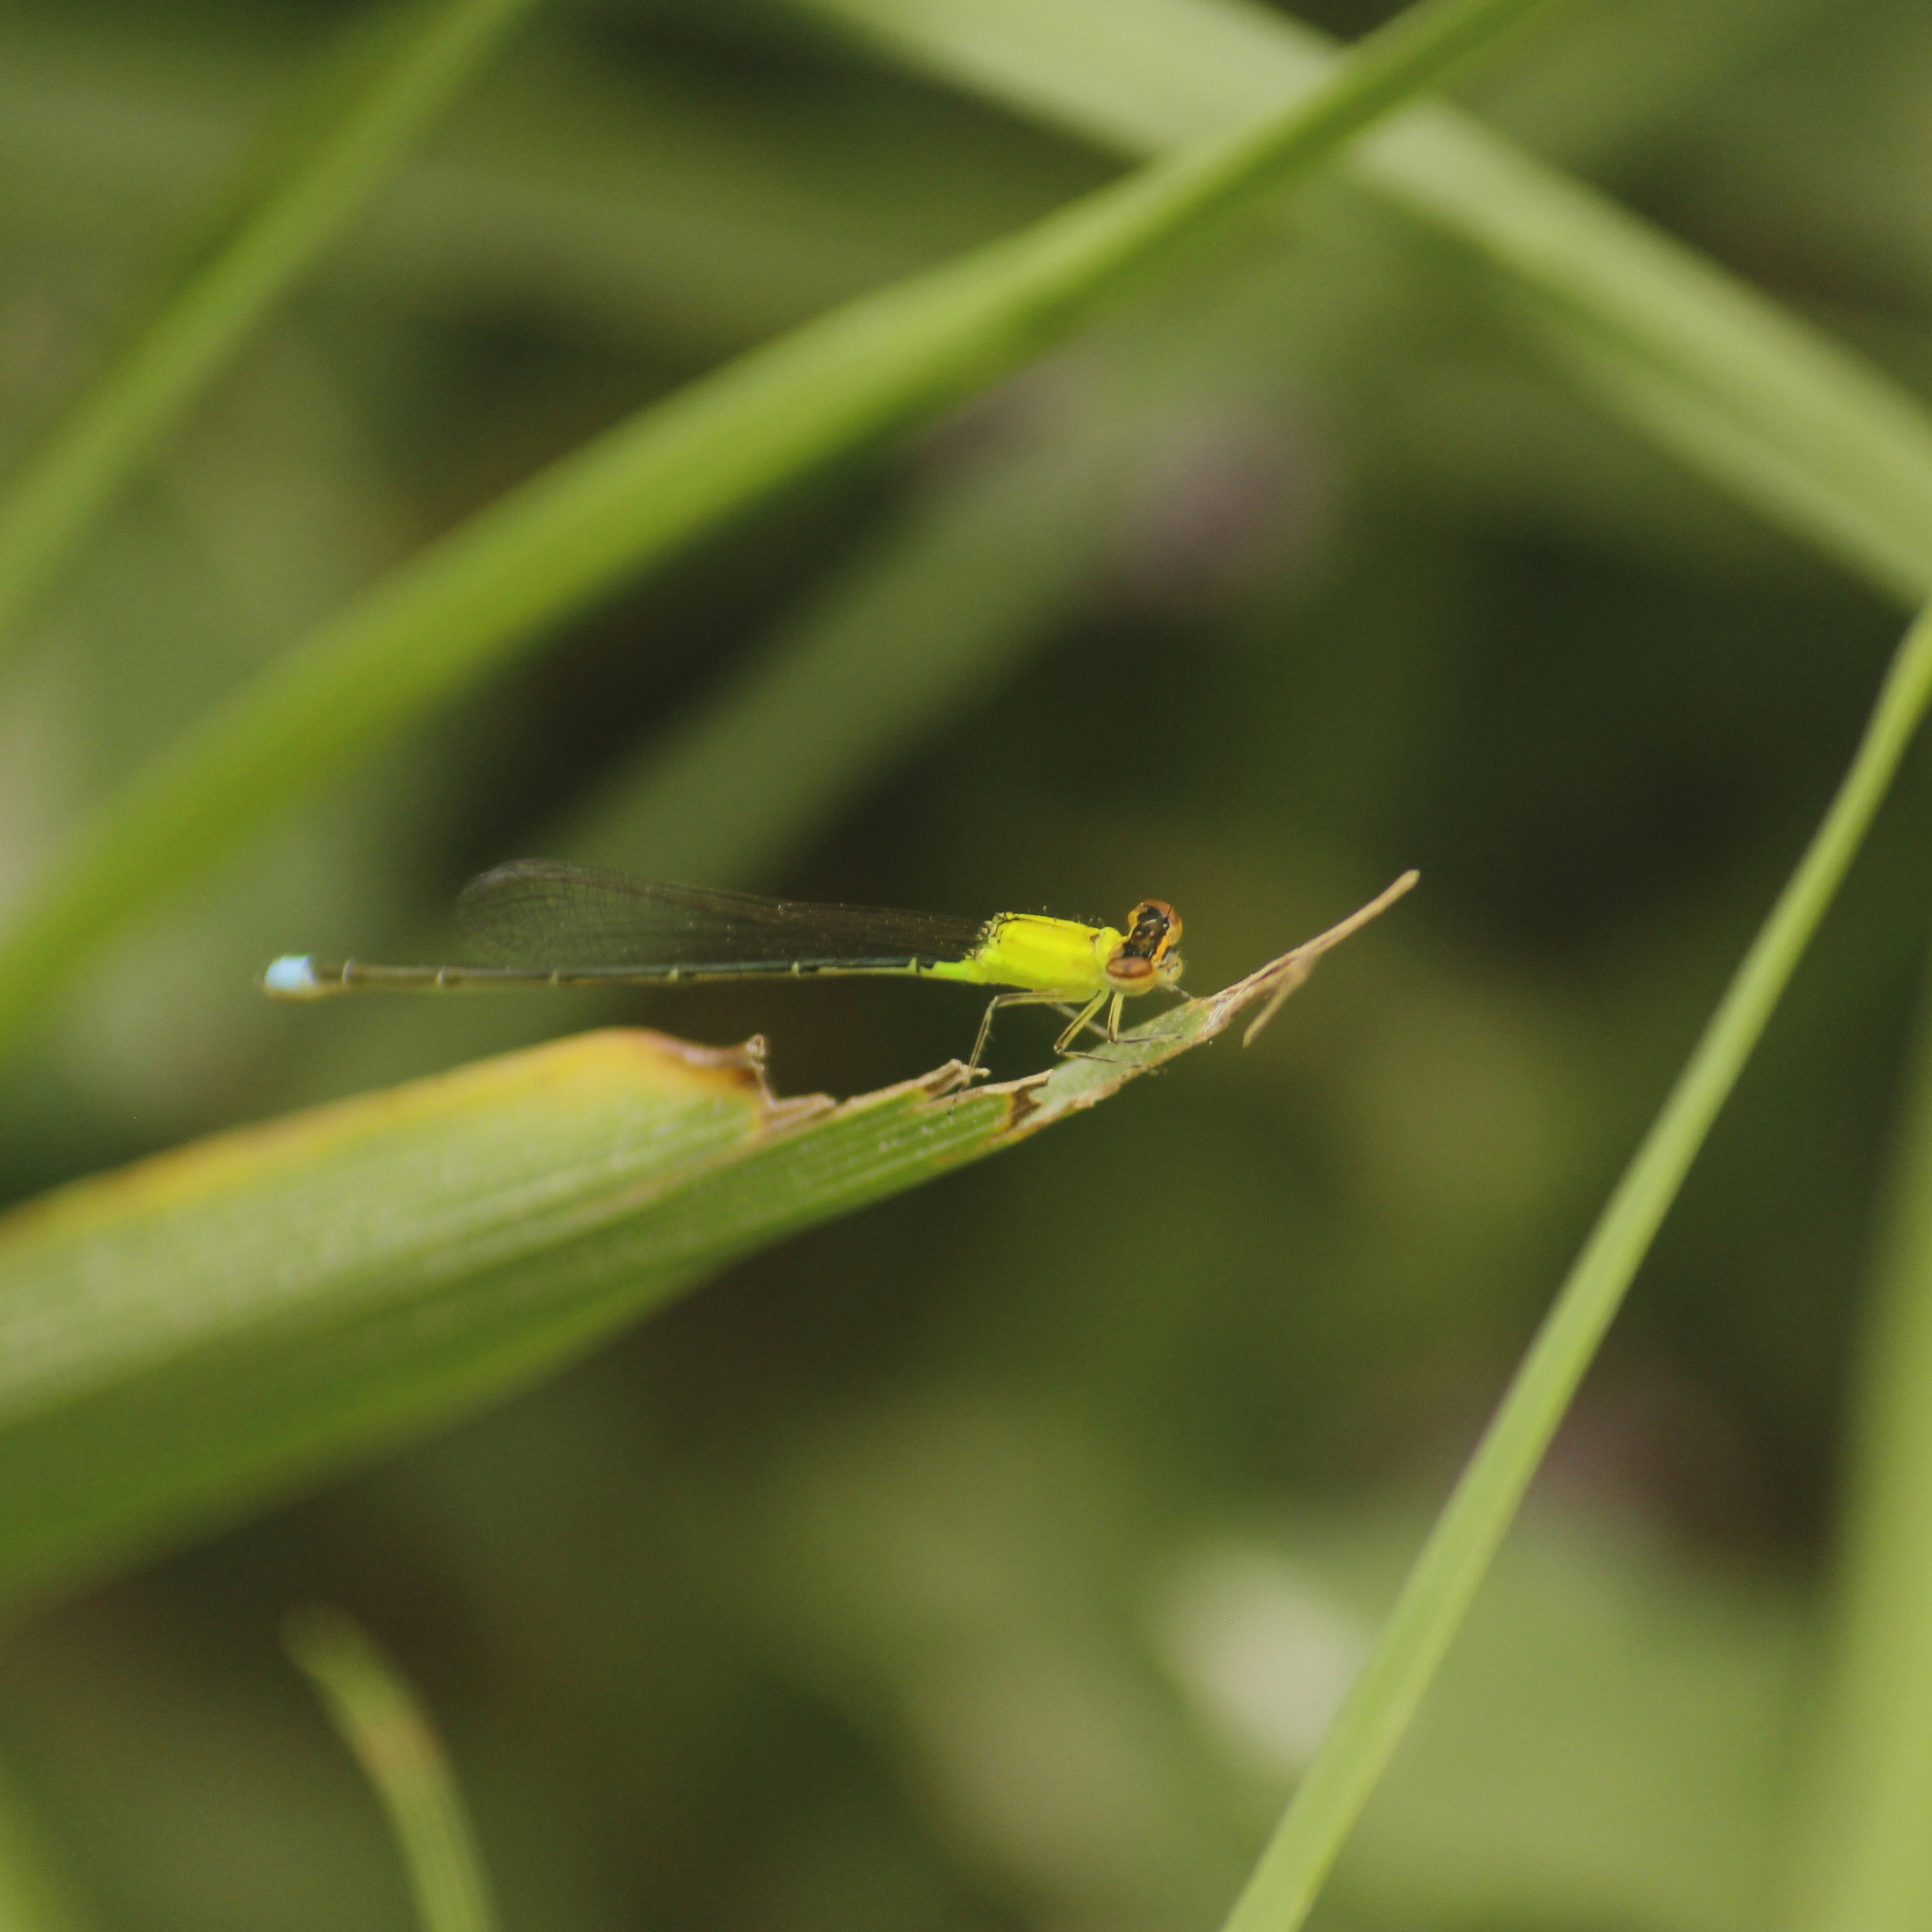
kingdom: Animalia
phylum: Arthropoda
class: Insecta
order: Odonata
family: Coenagrionidae
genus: Ischnura
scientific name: Ischnura capreolus
